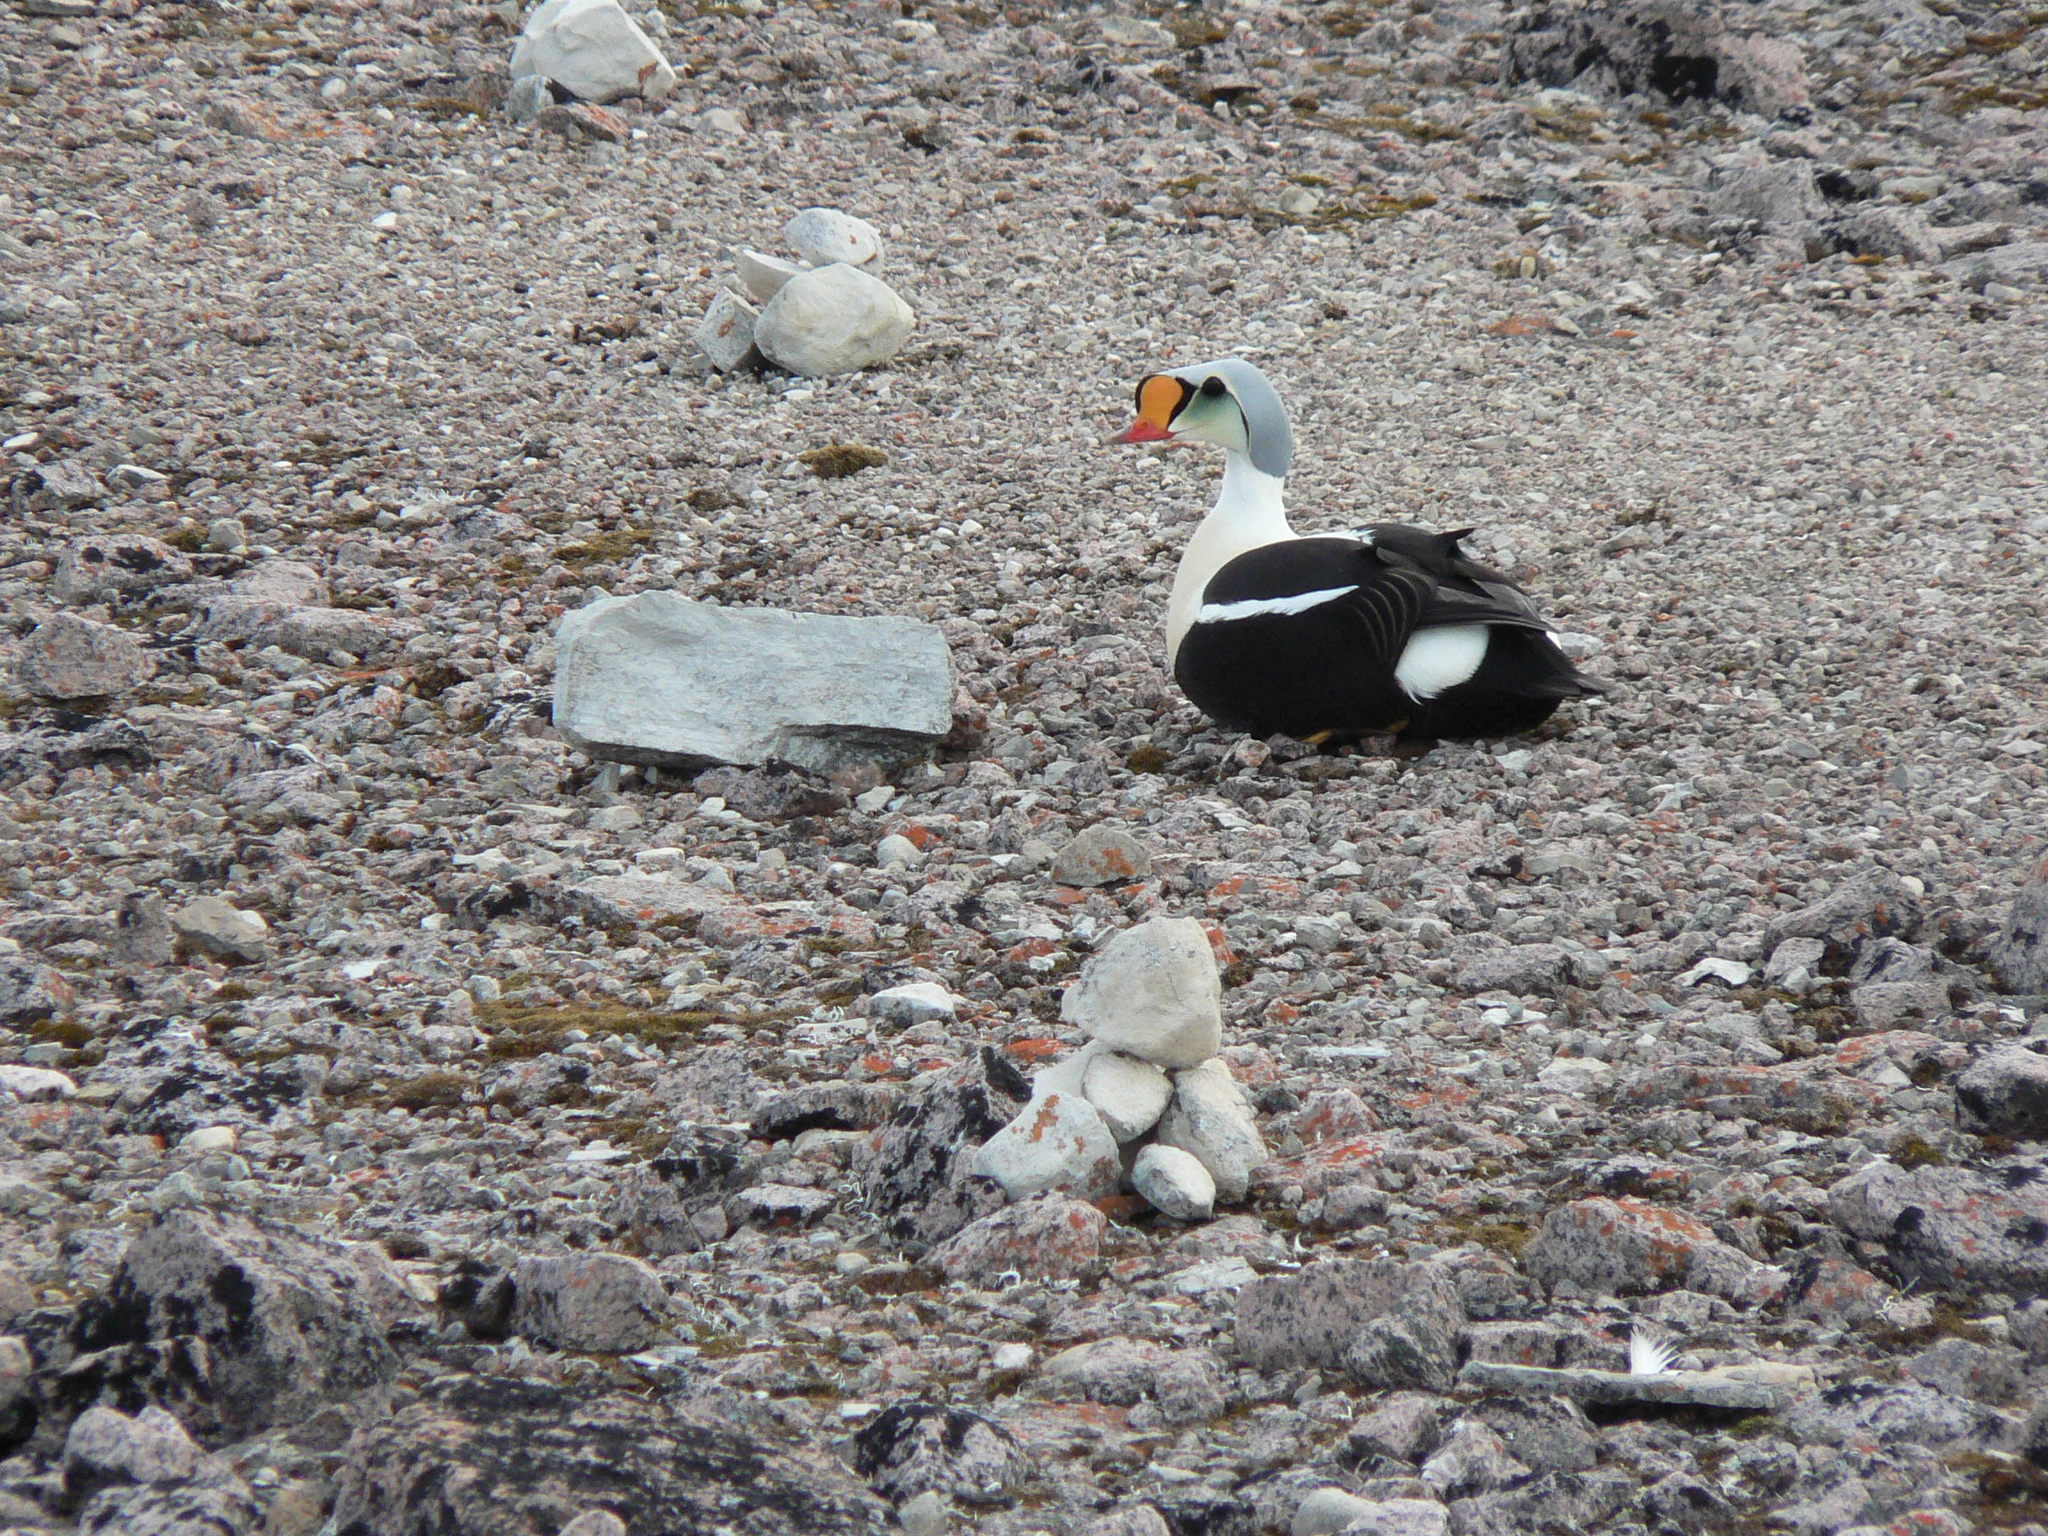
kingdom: Animalia
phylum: Chordata
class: Aves
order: Anseriformes
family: Anatidae
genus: Somateria
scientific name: Somateria spectabilis
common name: King eider
